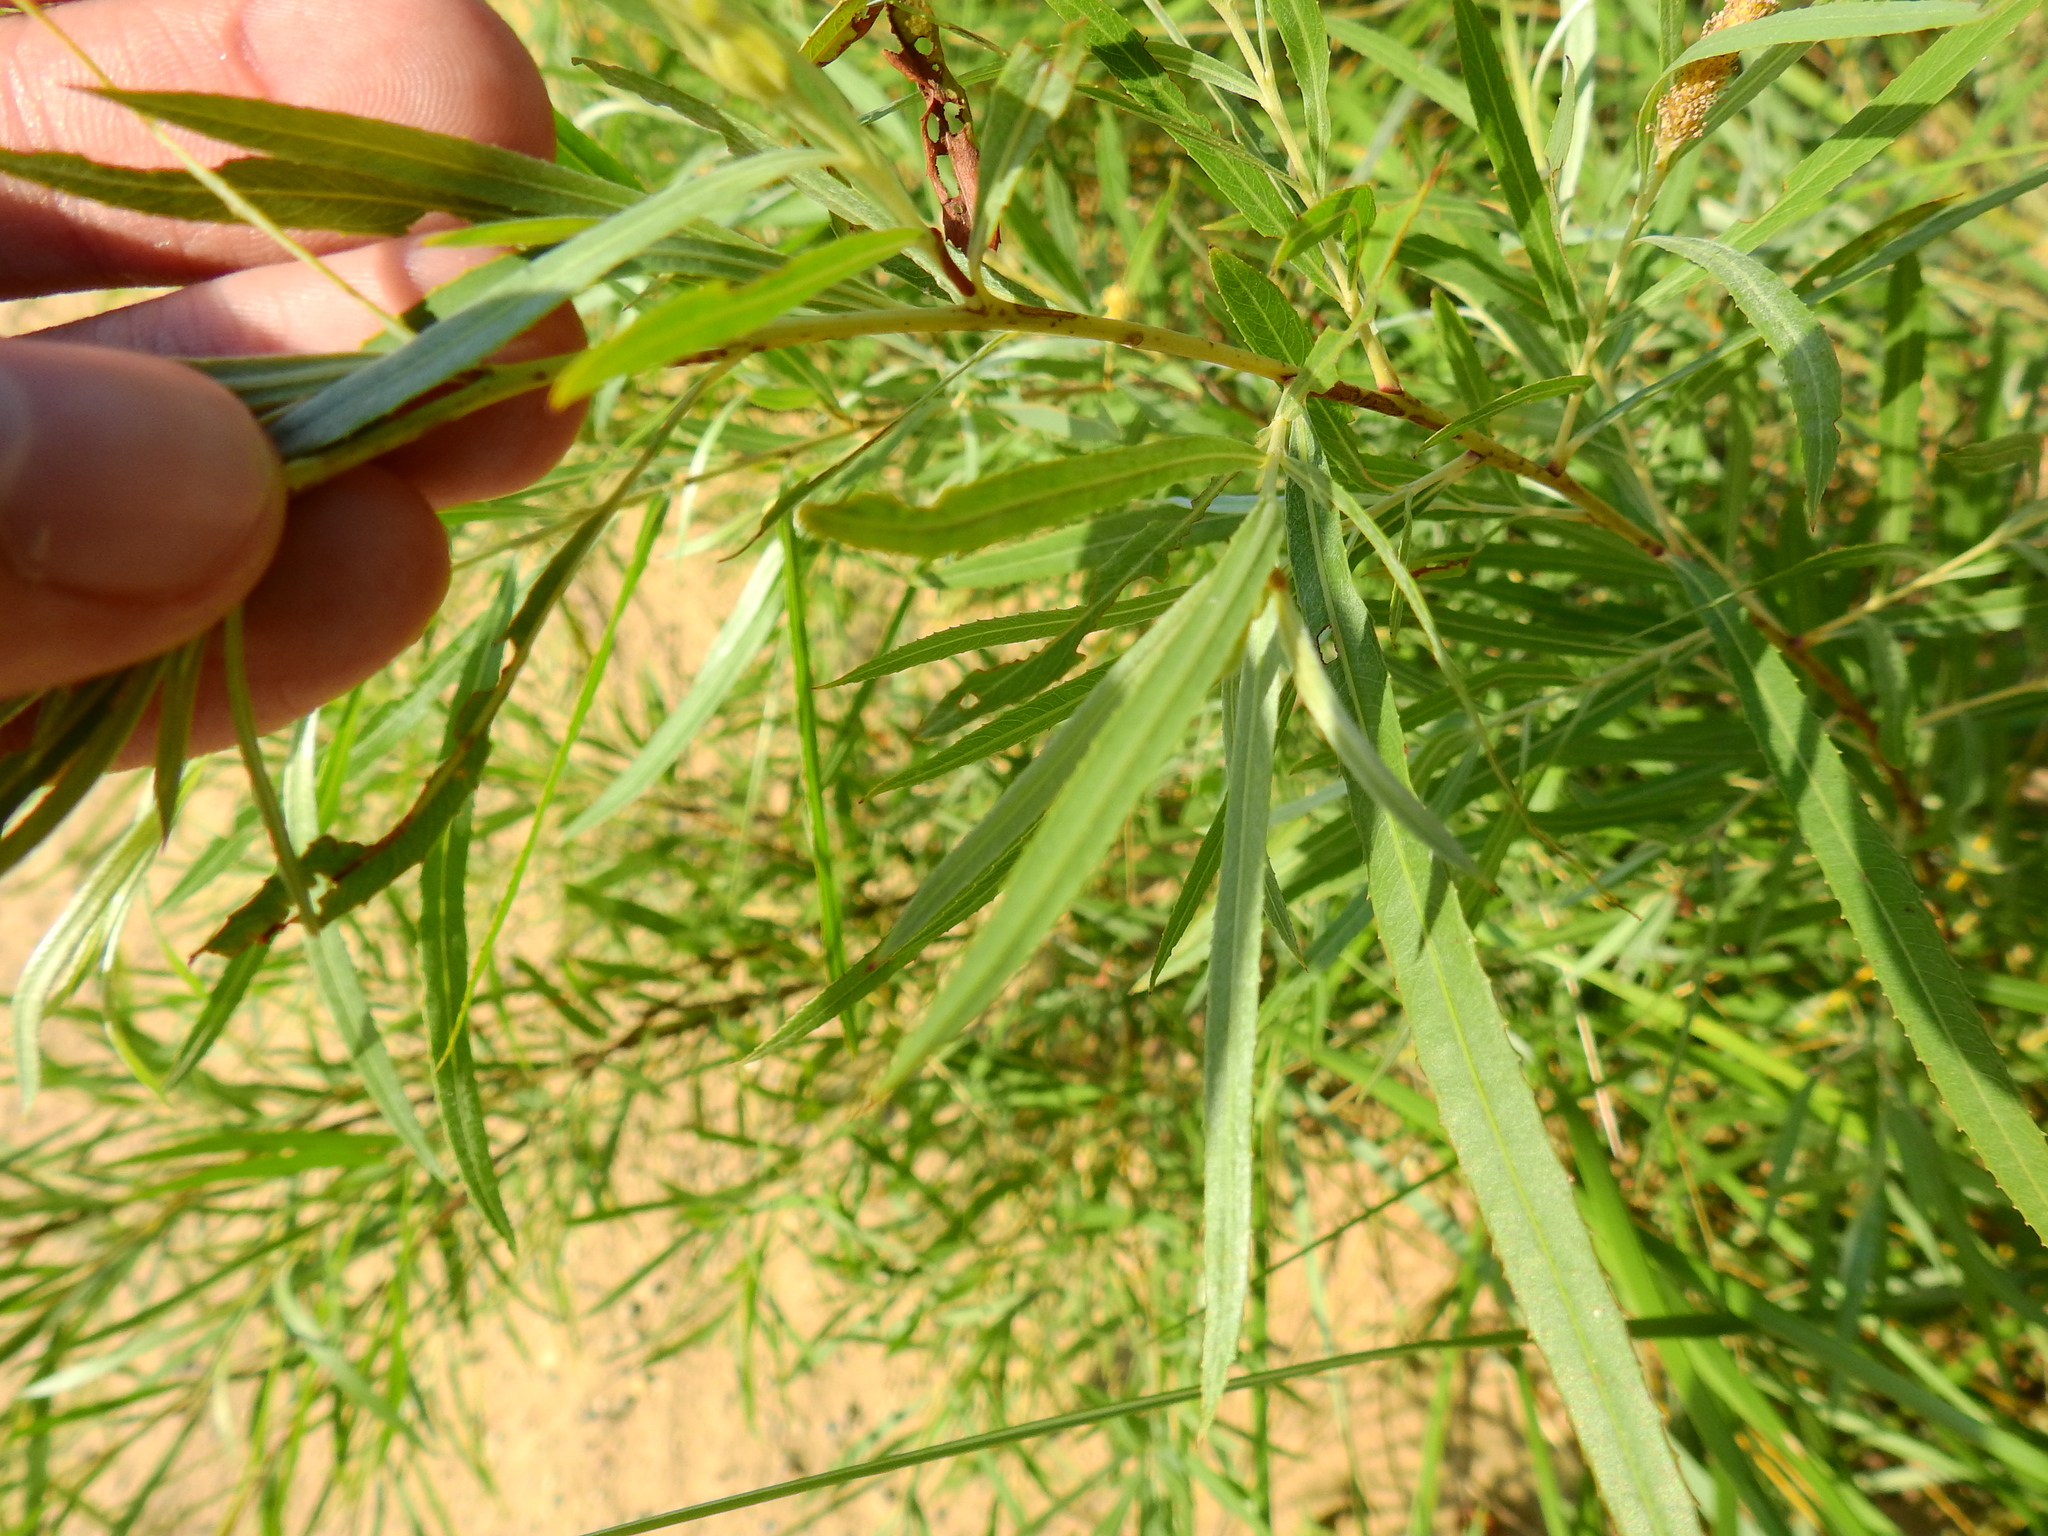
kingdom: Plantae
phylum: Tracheophyta
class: Magnoliopsida
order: Malpighiales
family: Salicaceae
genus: Salix
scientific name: Salix interior
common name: Sandbar willow
